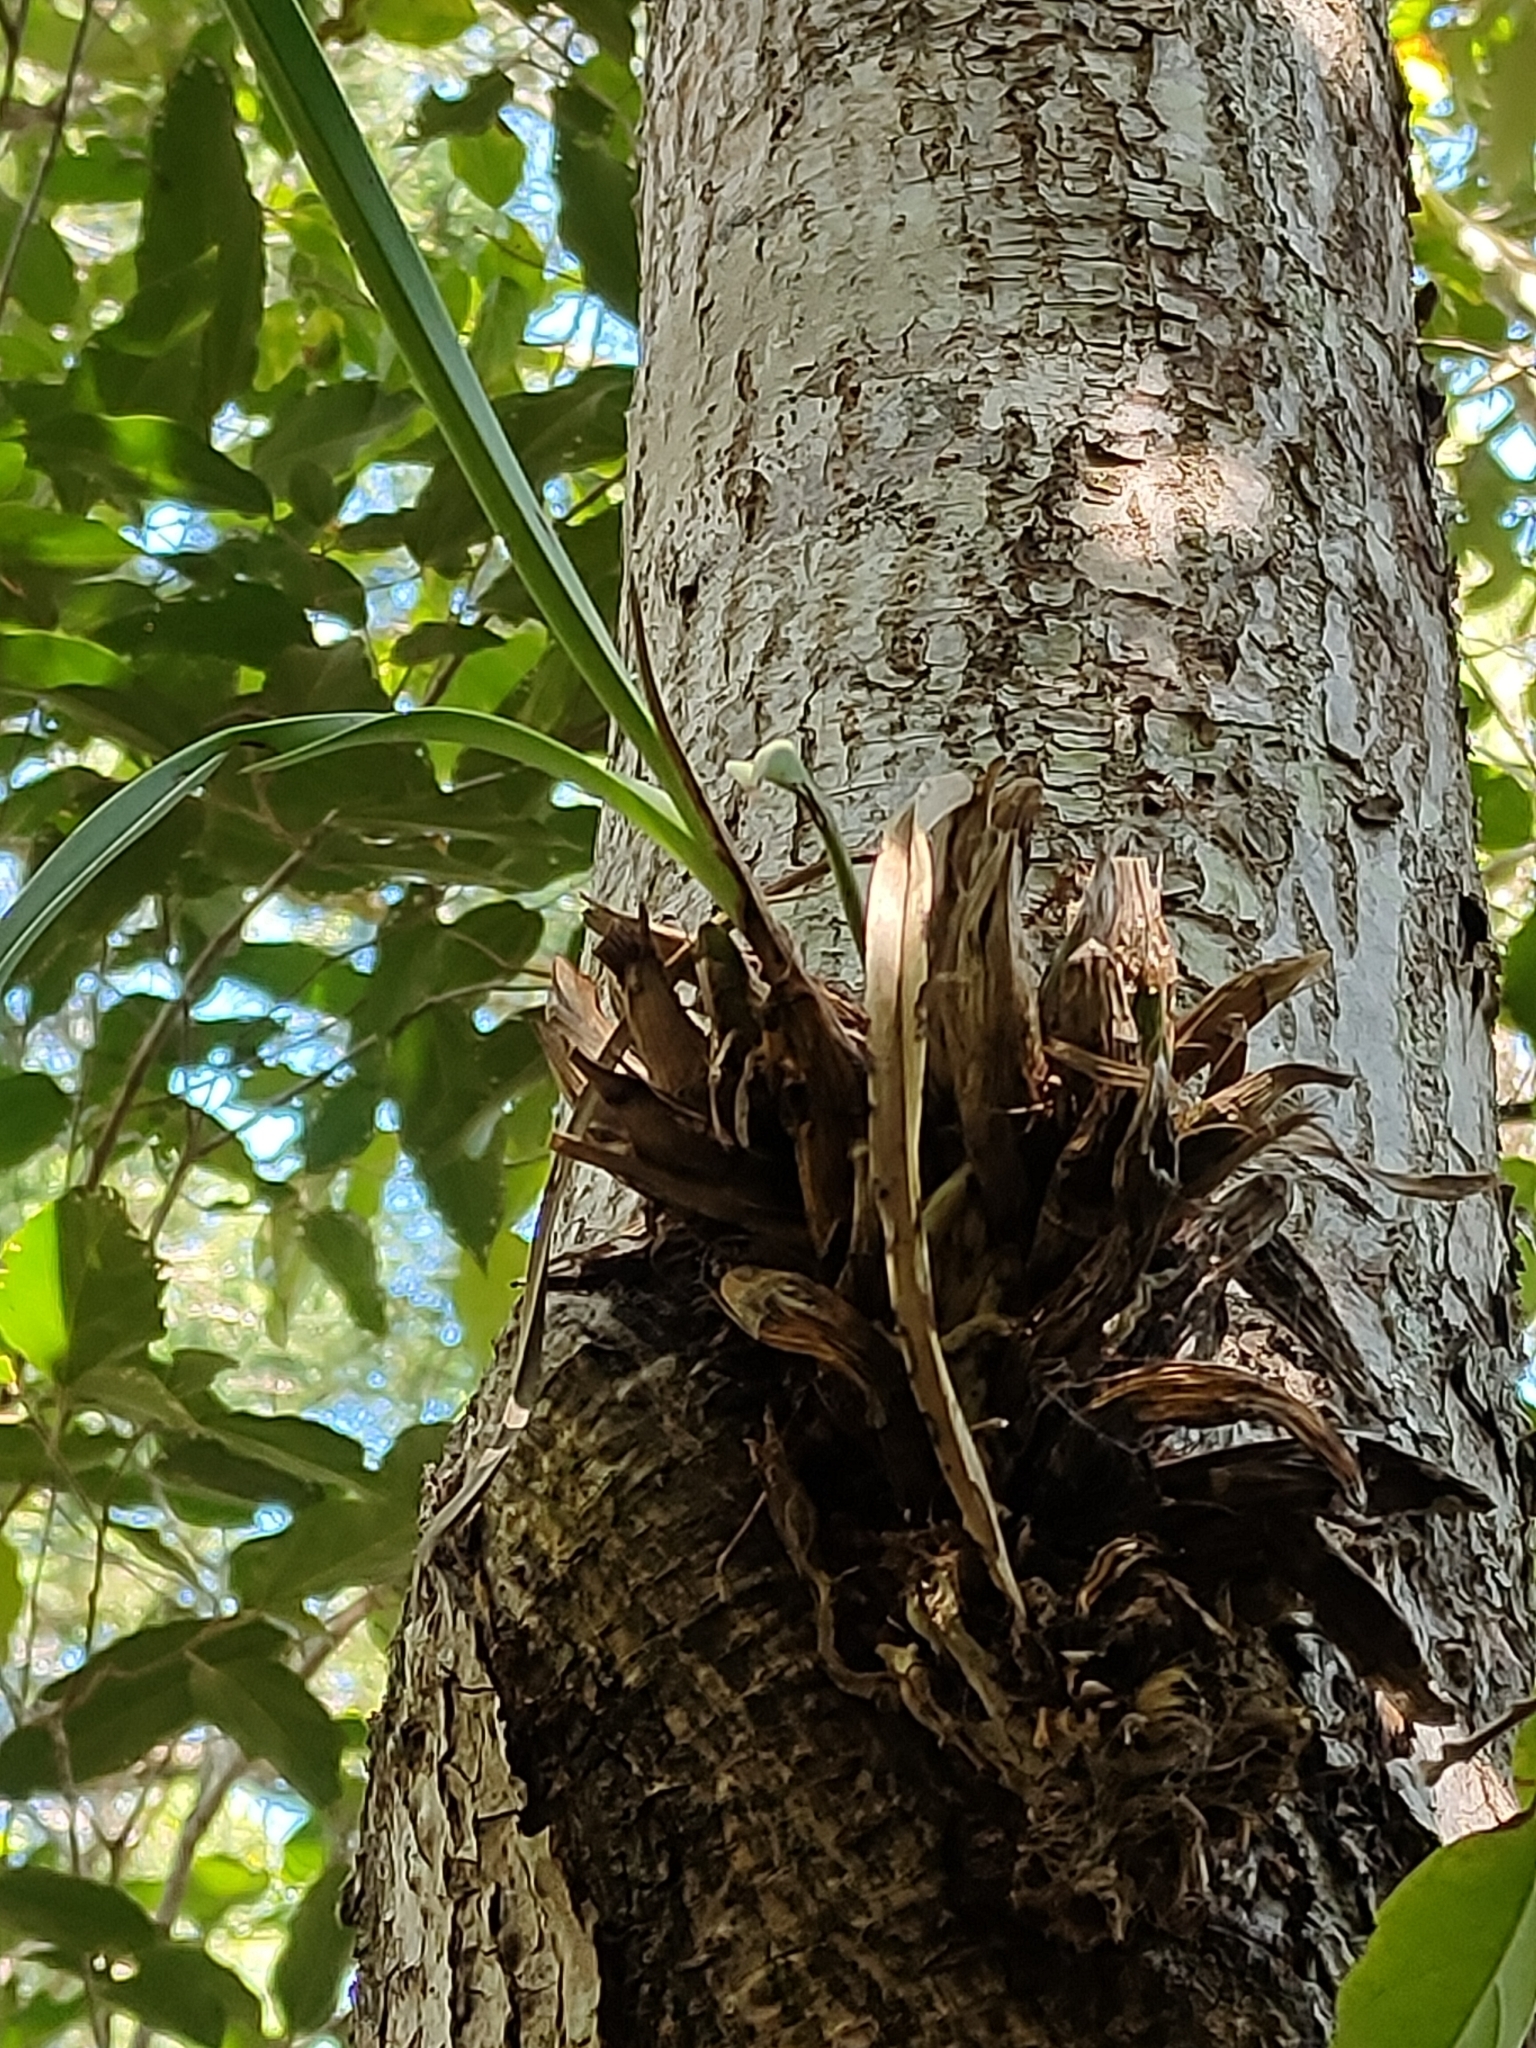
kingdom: Plantae
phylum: Tracheophyta
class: Liliopsida
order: Asparagales
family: Orchidaceae
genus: Cymbidium
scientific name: Cymbidium canaliculatum
